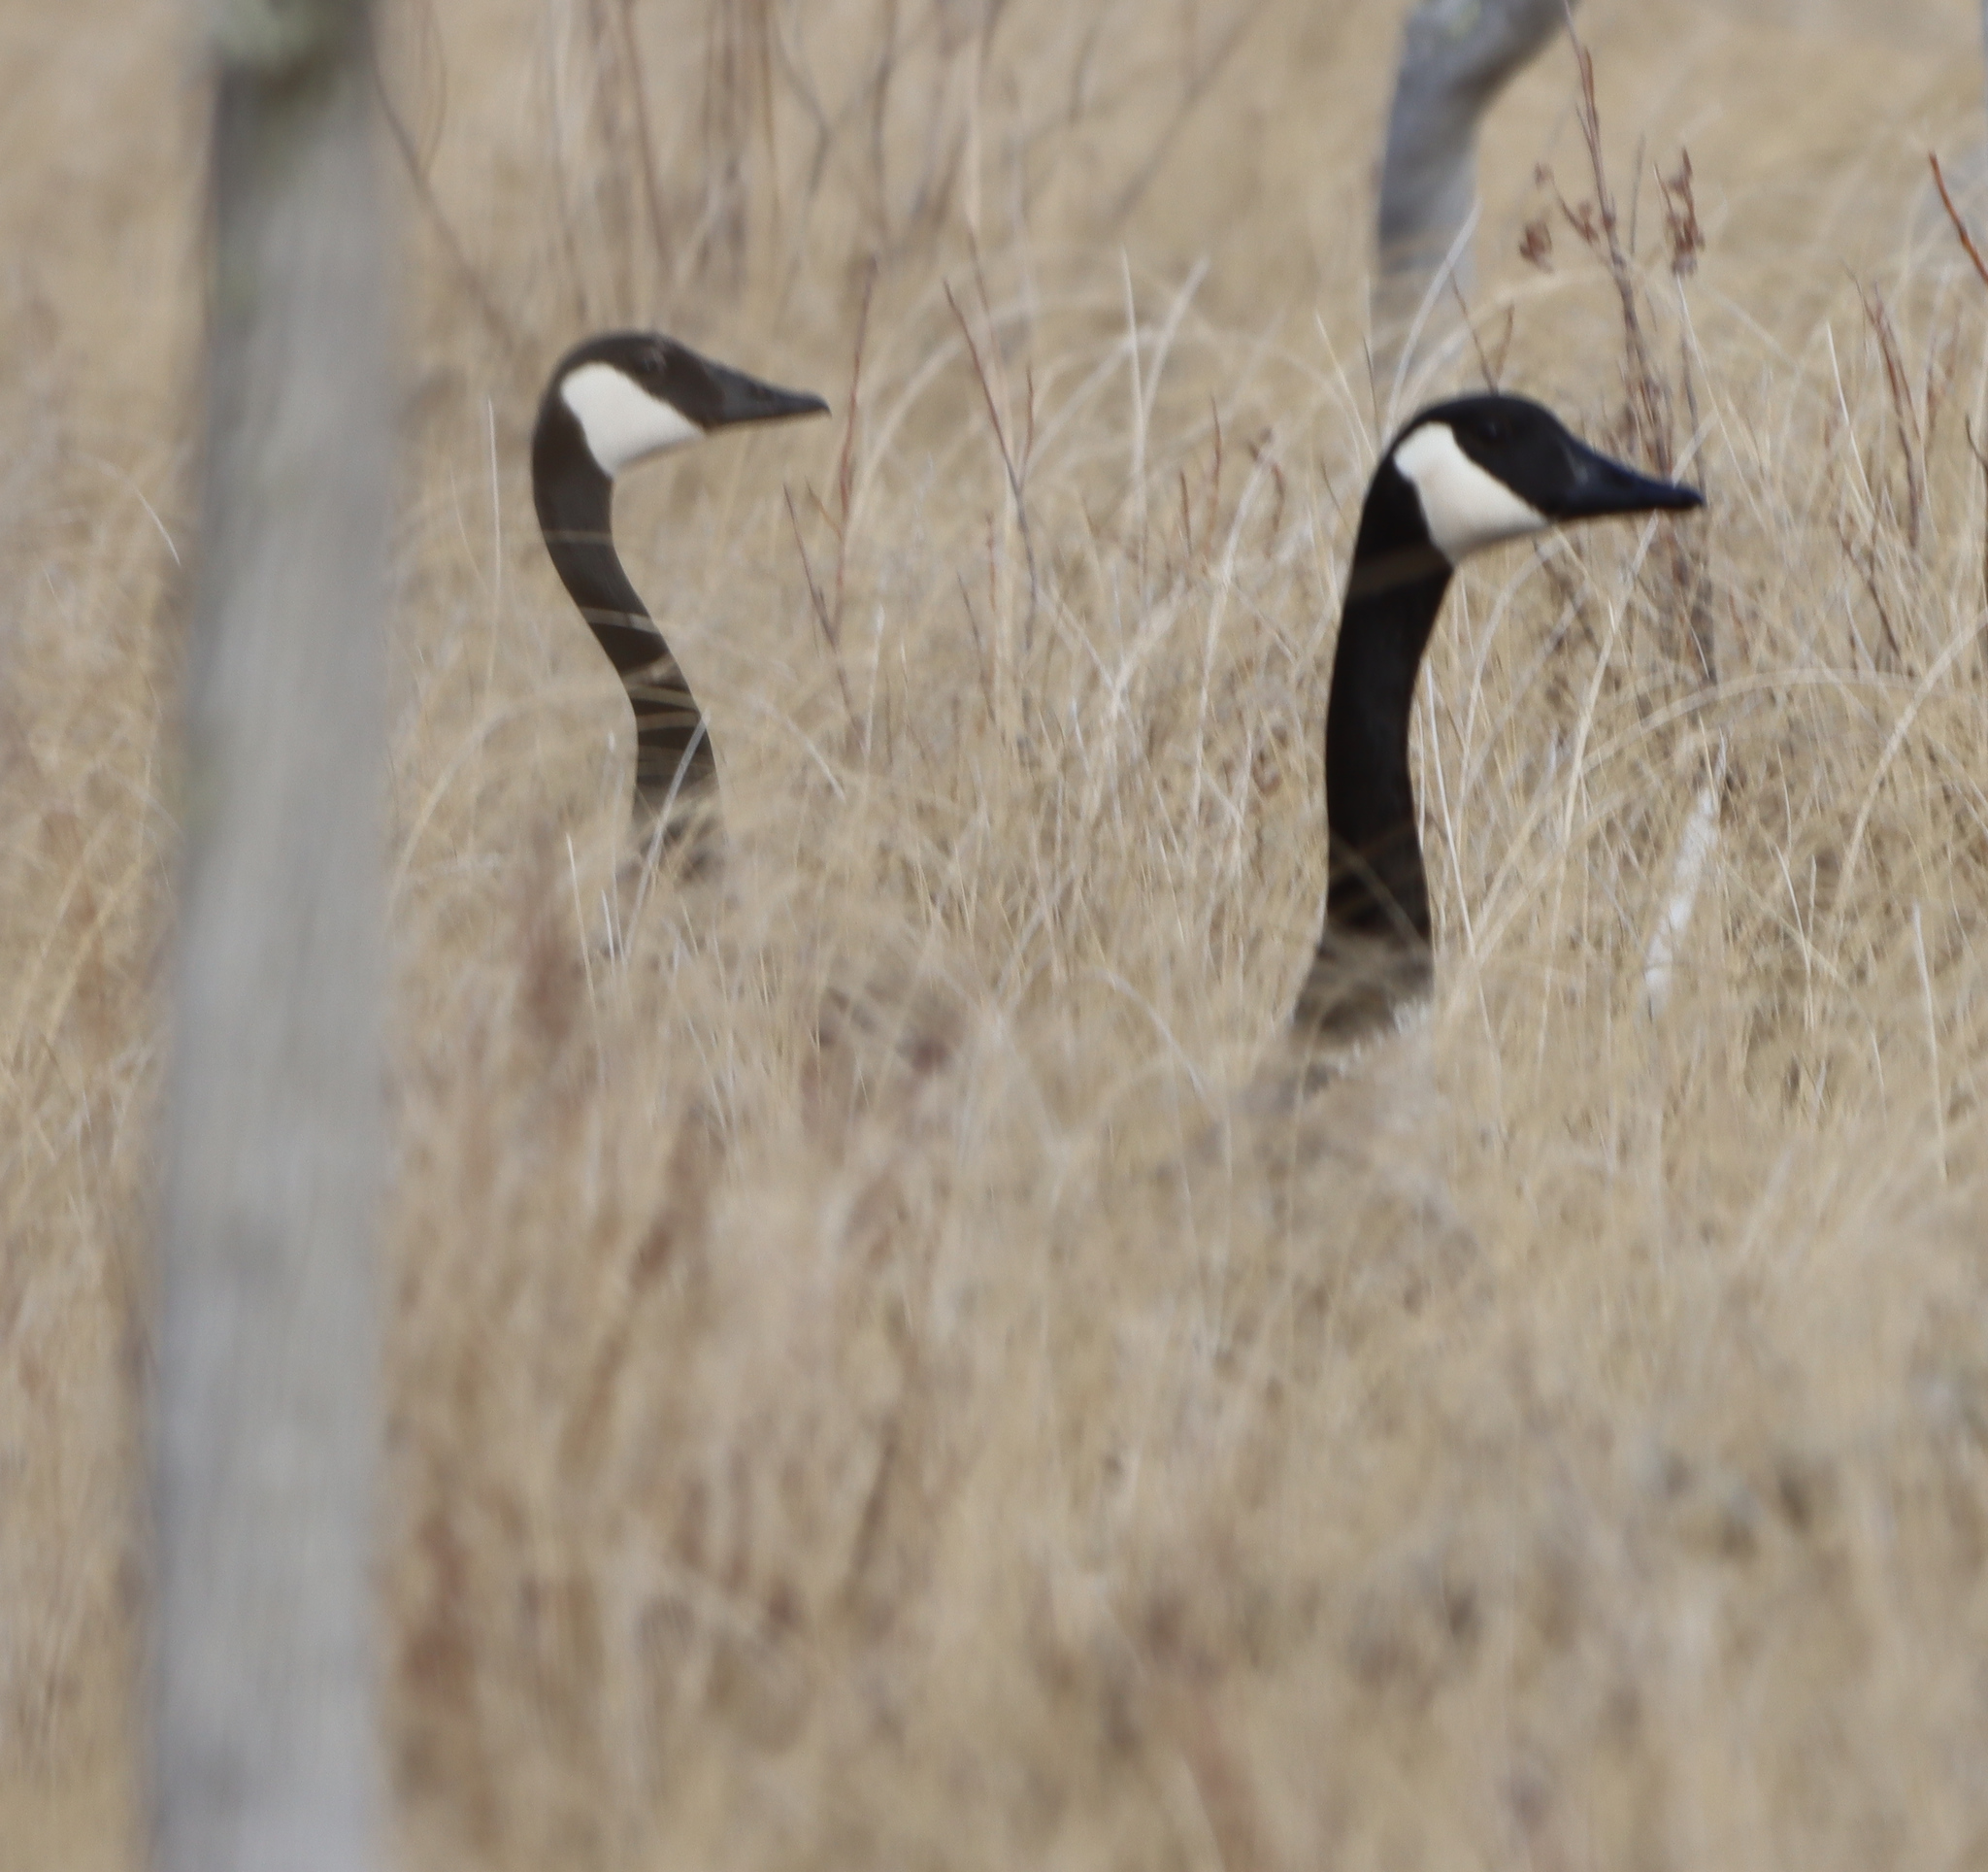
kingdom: Animalia
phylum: Chordata
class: Aves
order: Anseriformes
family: Anatidae
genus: Branta
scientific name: Branta canadensis
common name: Canada goose
